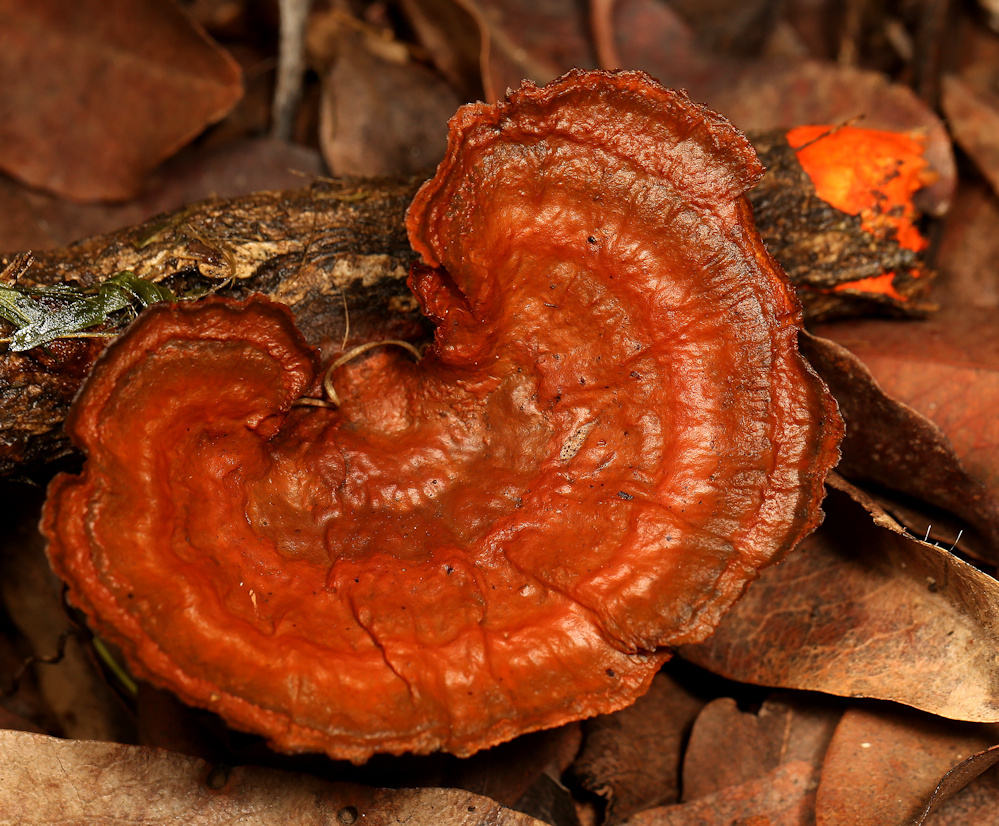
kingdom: Fungi
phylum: Basidiomycota
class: Agaricomycetes
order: Polyporales
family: Polyporaceae
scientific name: Polyporaceae
